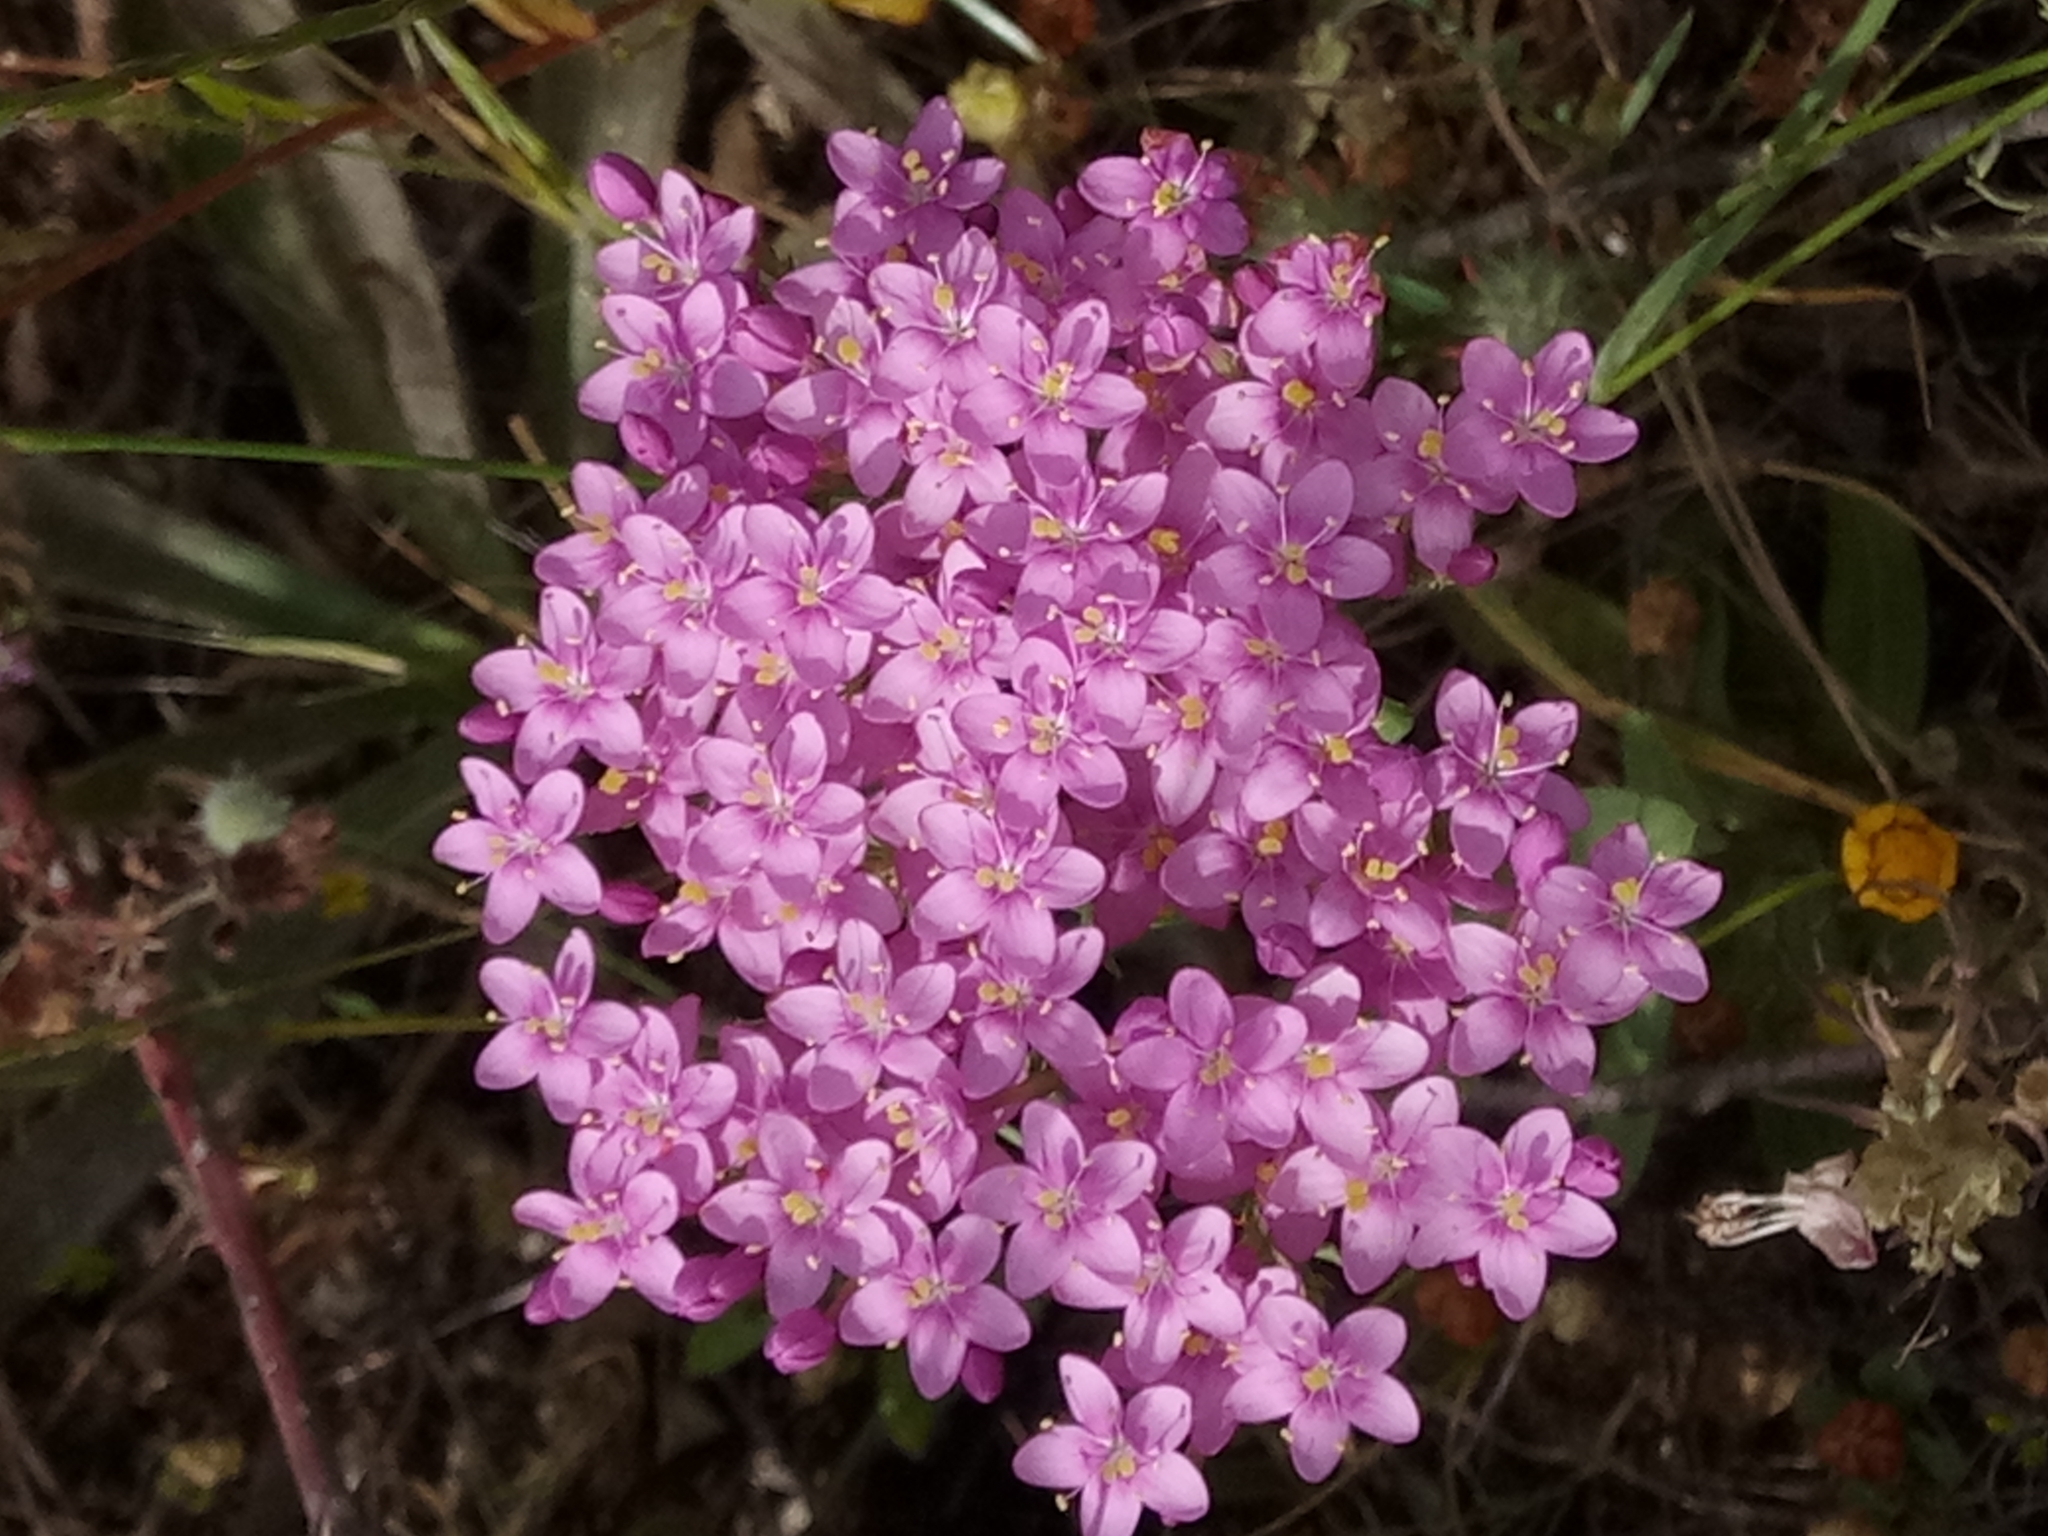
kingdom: Plantae
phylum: Tracheophyta
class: Magnoliopsida
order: Gentianales
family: Gentianaceae
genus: Centaurium
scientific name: Centaurium erythraea
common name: Common centaury
